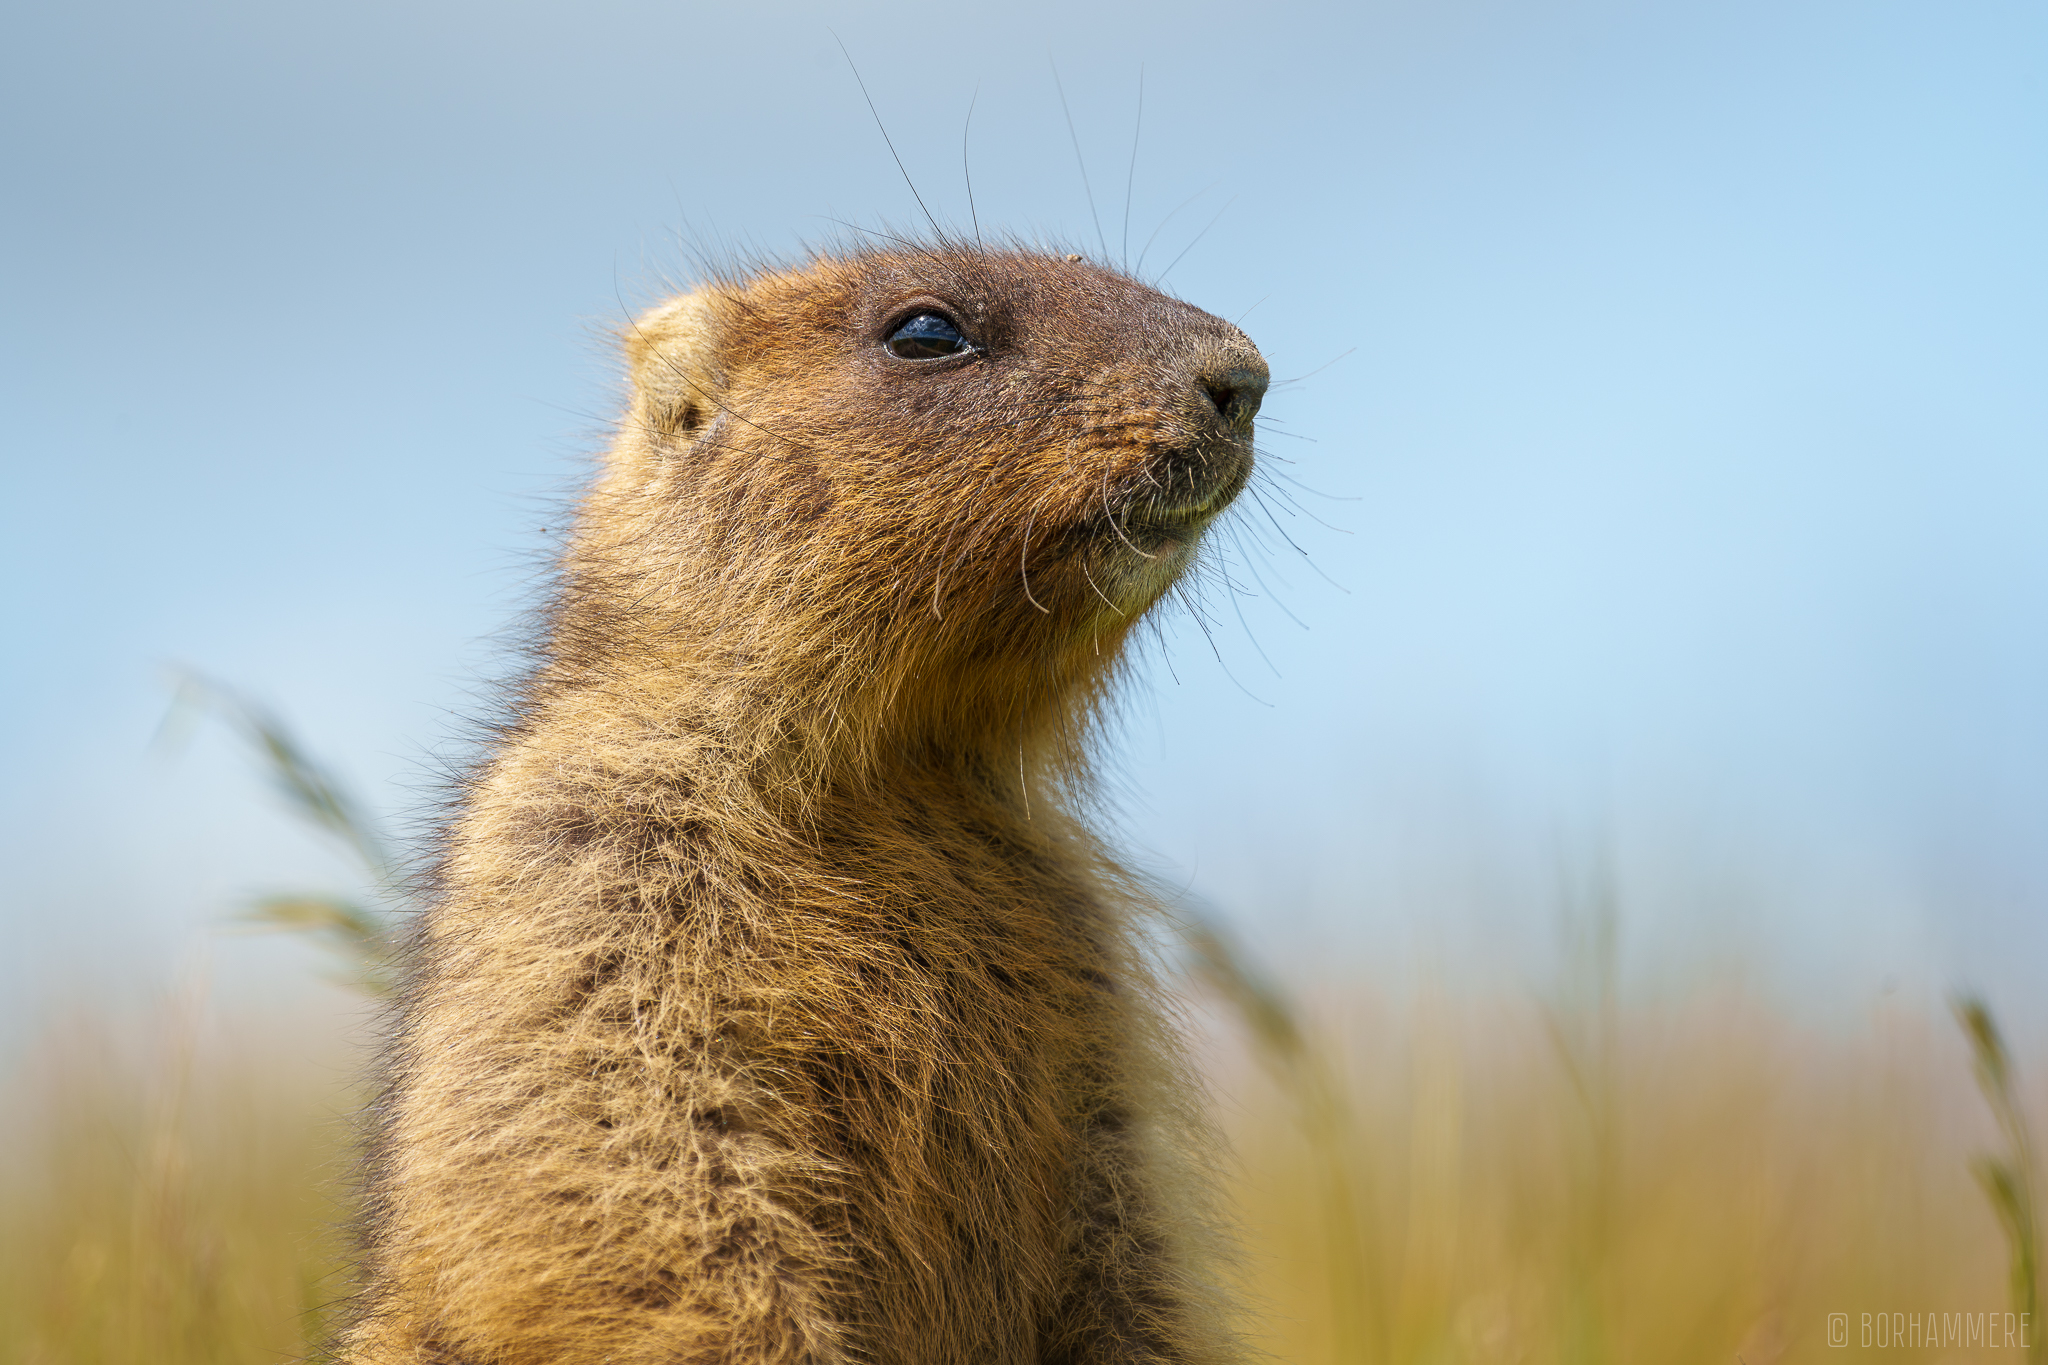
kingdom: Animalia
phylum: Chordata
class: Mammalia
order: Rodentia
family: Sciuridae
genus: Marmota
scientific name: Marmota bobak
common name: Bobak marmot
